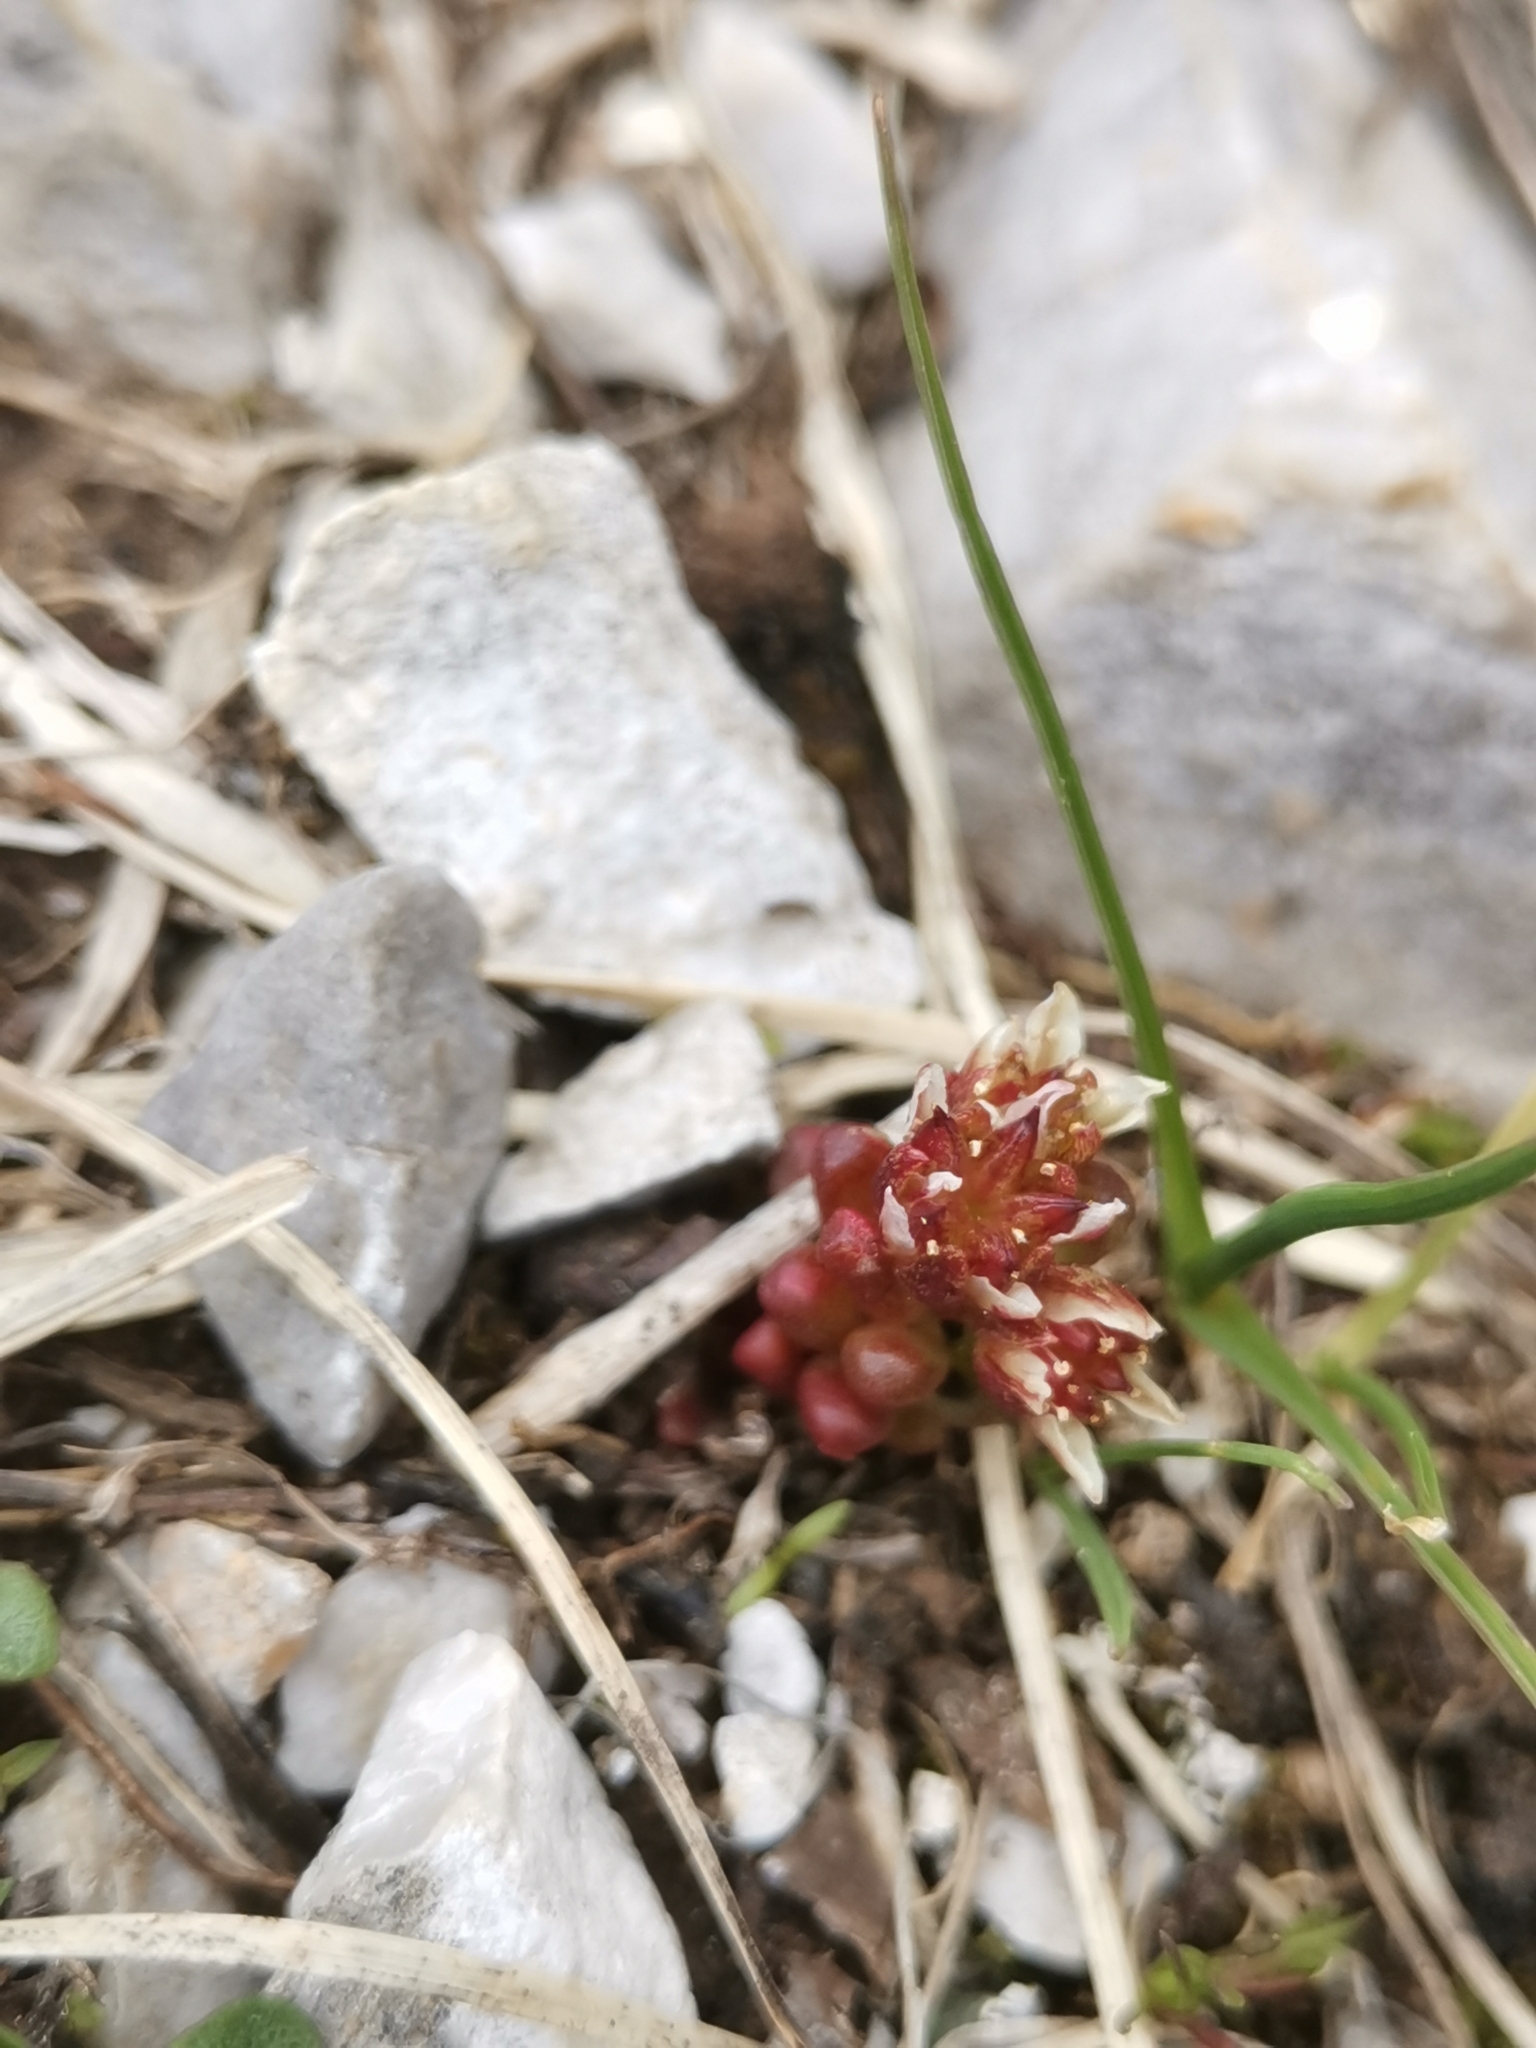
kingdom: Plantae
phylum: Tracheophyta
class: Magnoliopsida
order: Saxifragales
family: Crassulaceae
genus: Sedum
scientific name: Sedum atratum
